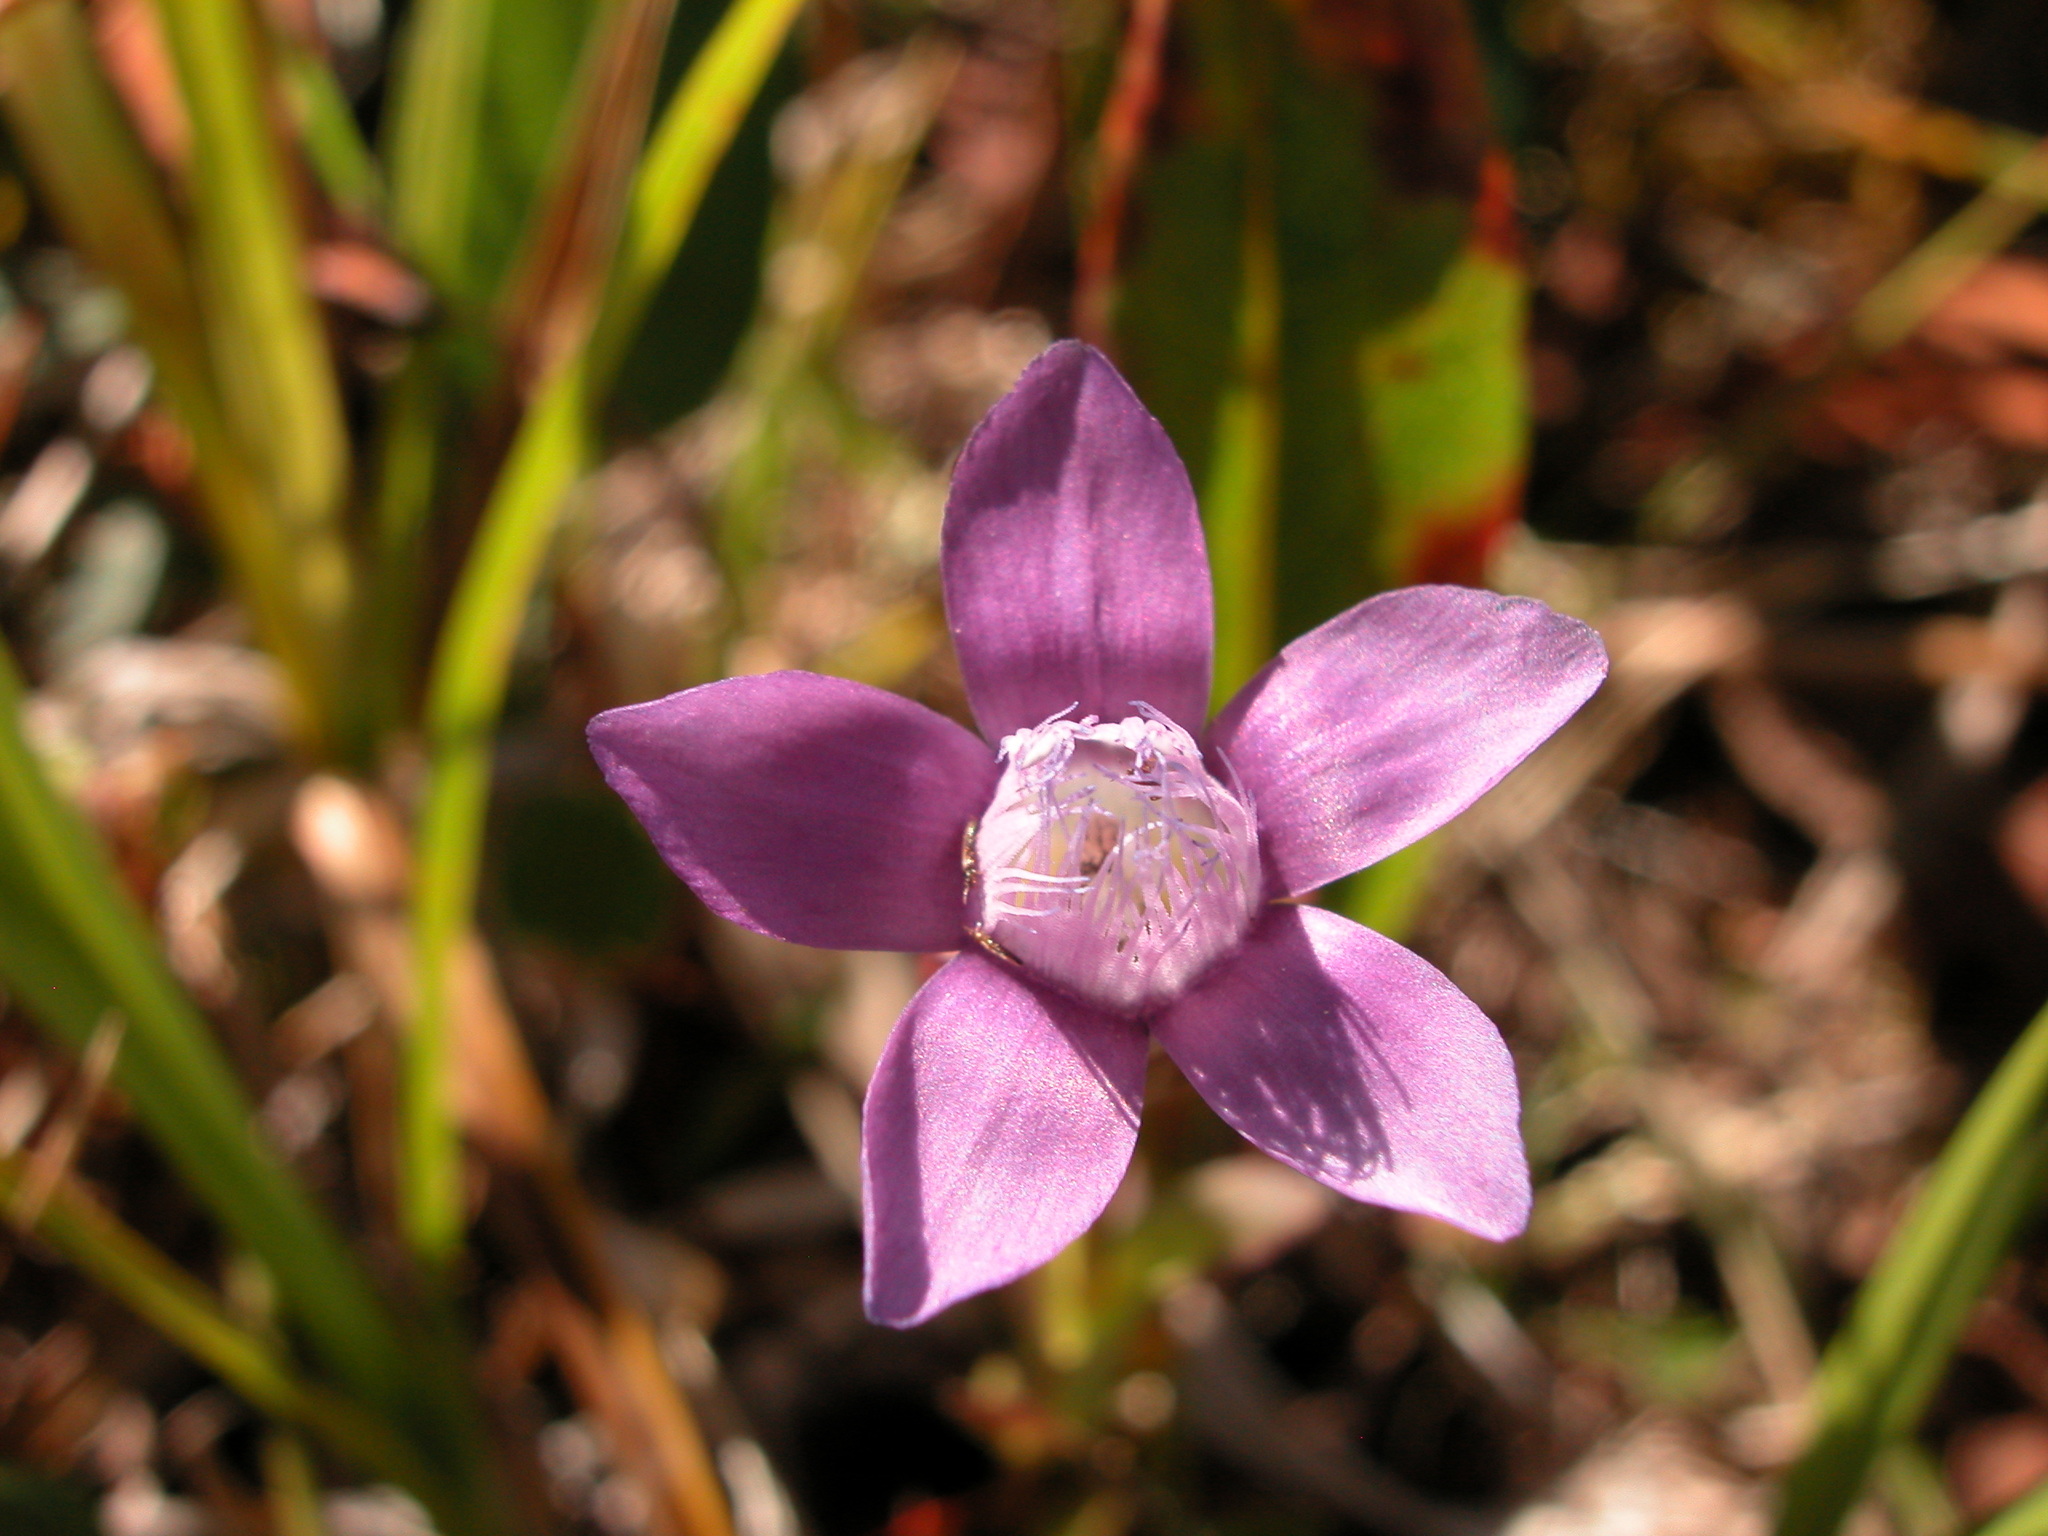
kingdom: Plantae
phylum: Tracheophyta
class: Magnoliopsida
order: Gentianales
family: Gentianaceae
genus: Gentianella
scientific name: Gentianella auriculata
